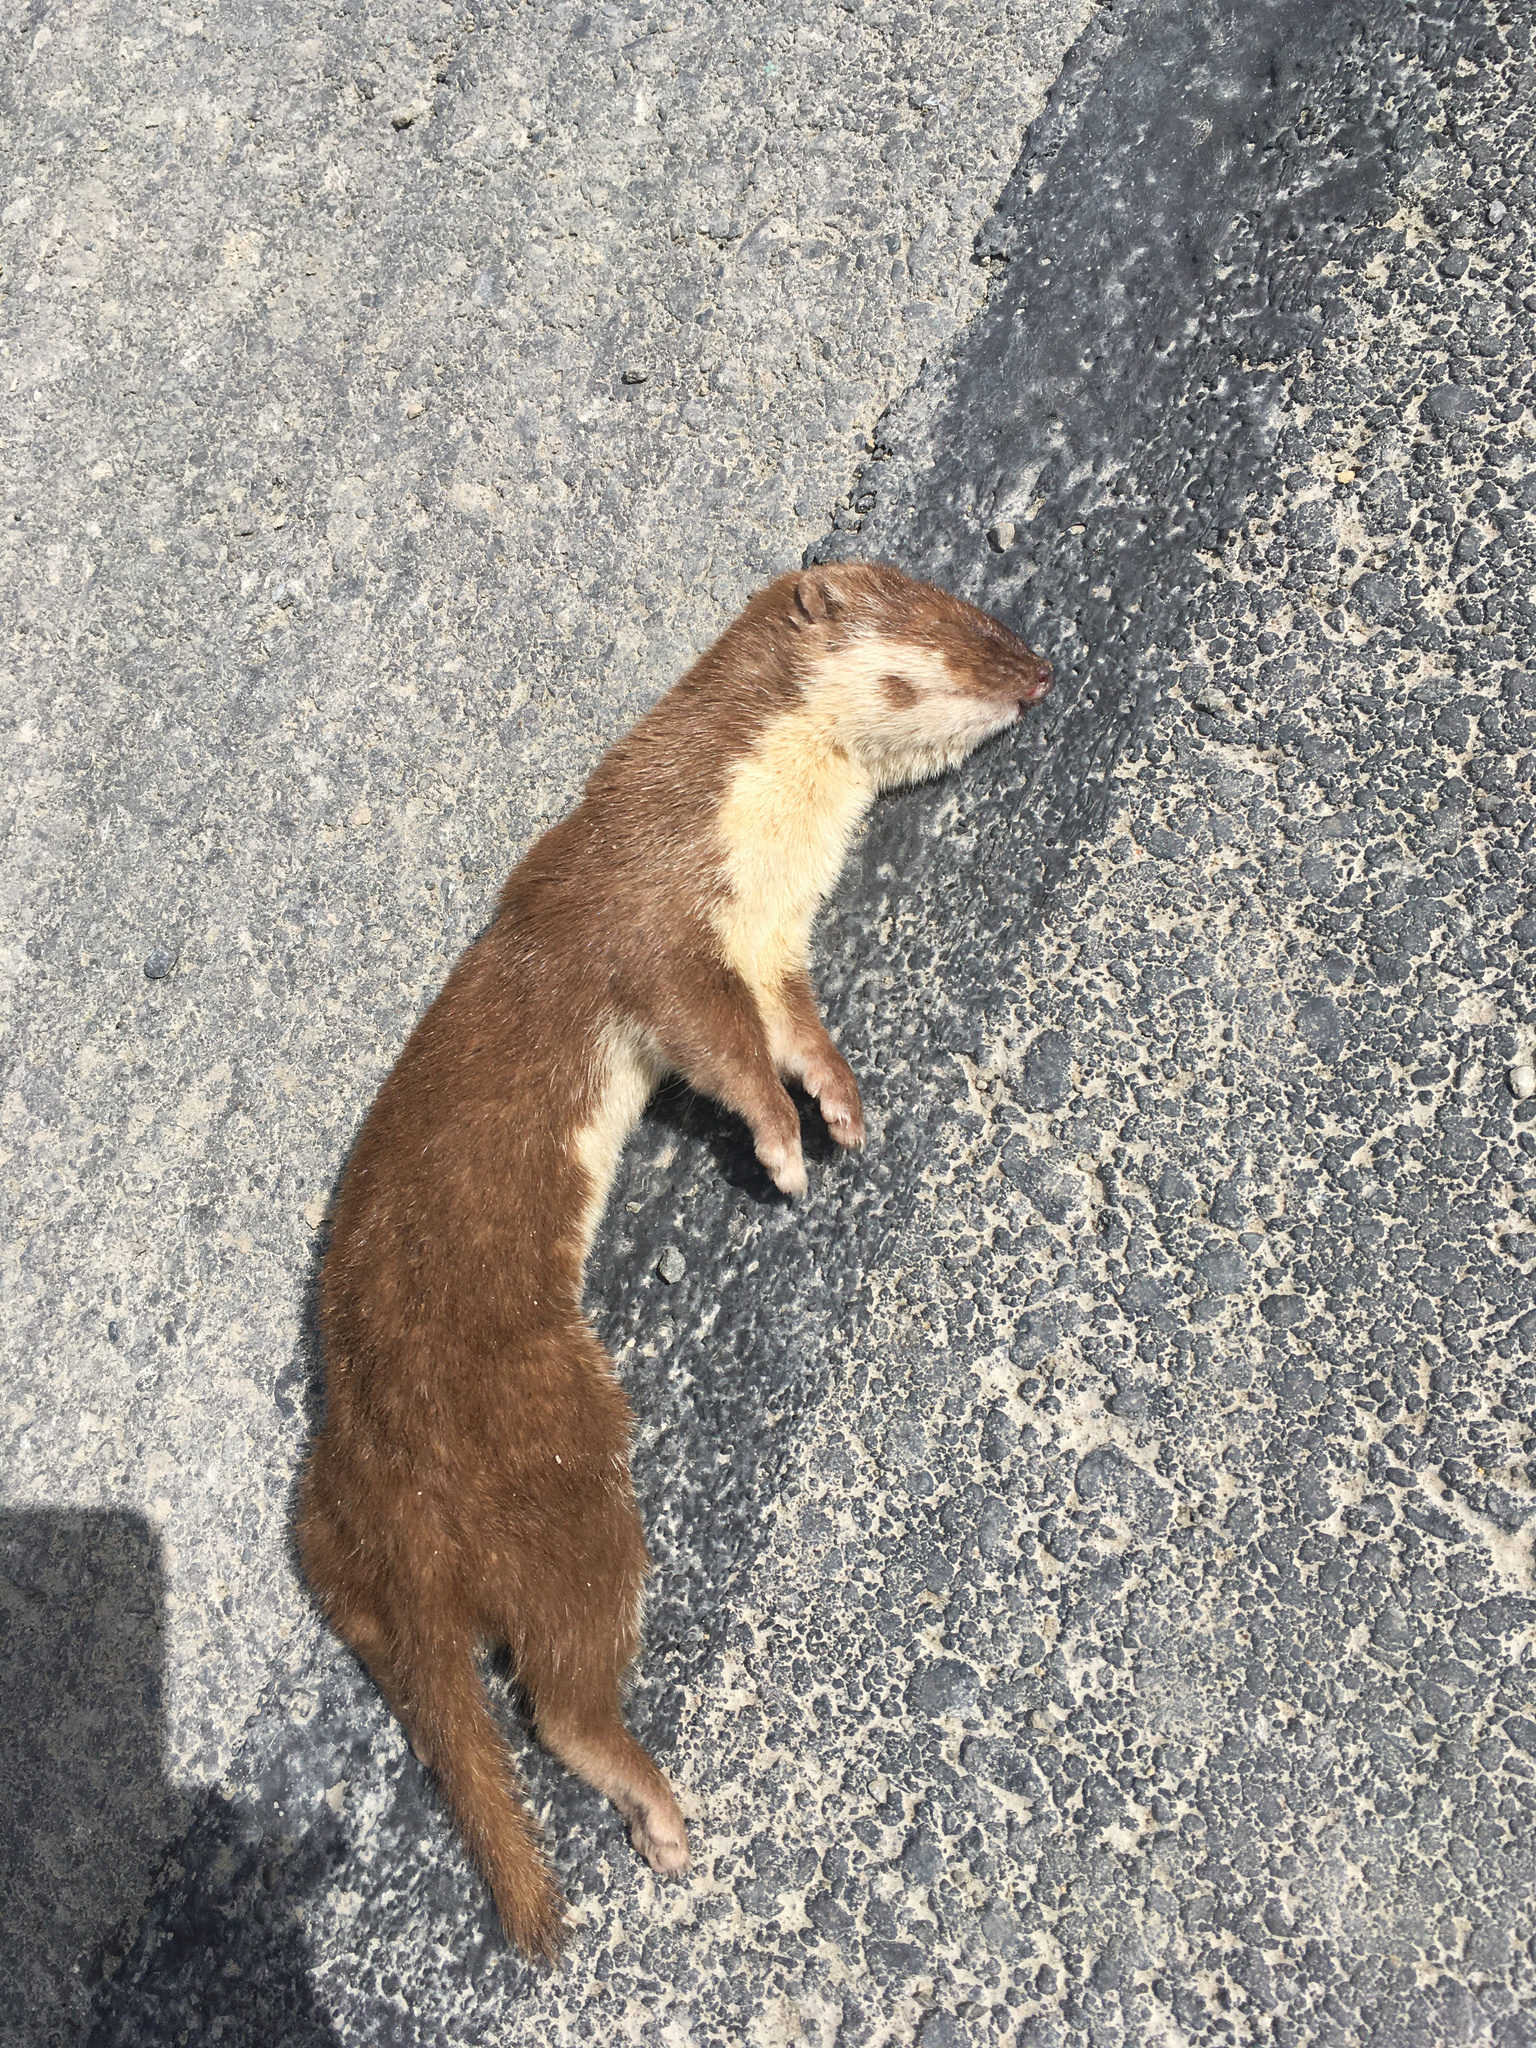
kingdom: Animalia
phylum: Chordata
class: Mammalia
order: Carnivora
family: Mustelidae
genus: Mustela
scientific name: Mustela nivalis
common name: Least weasel
